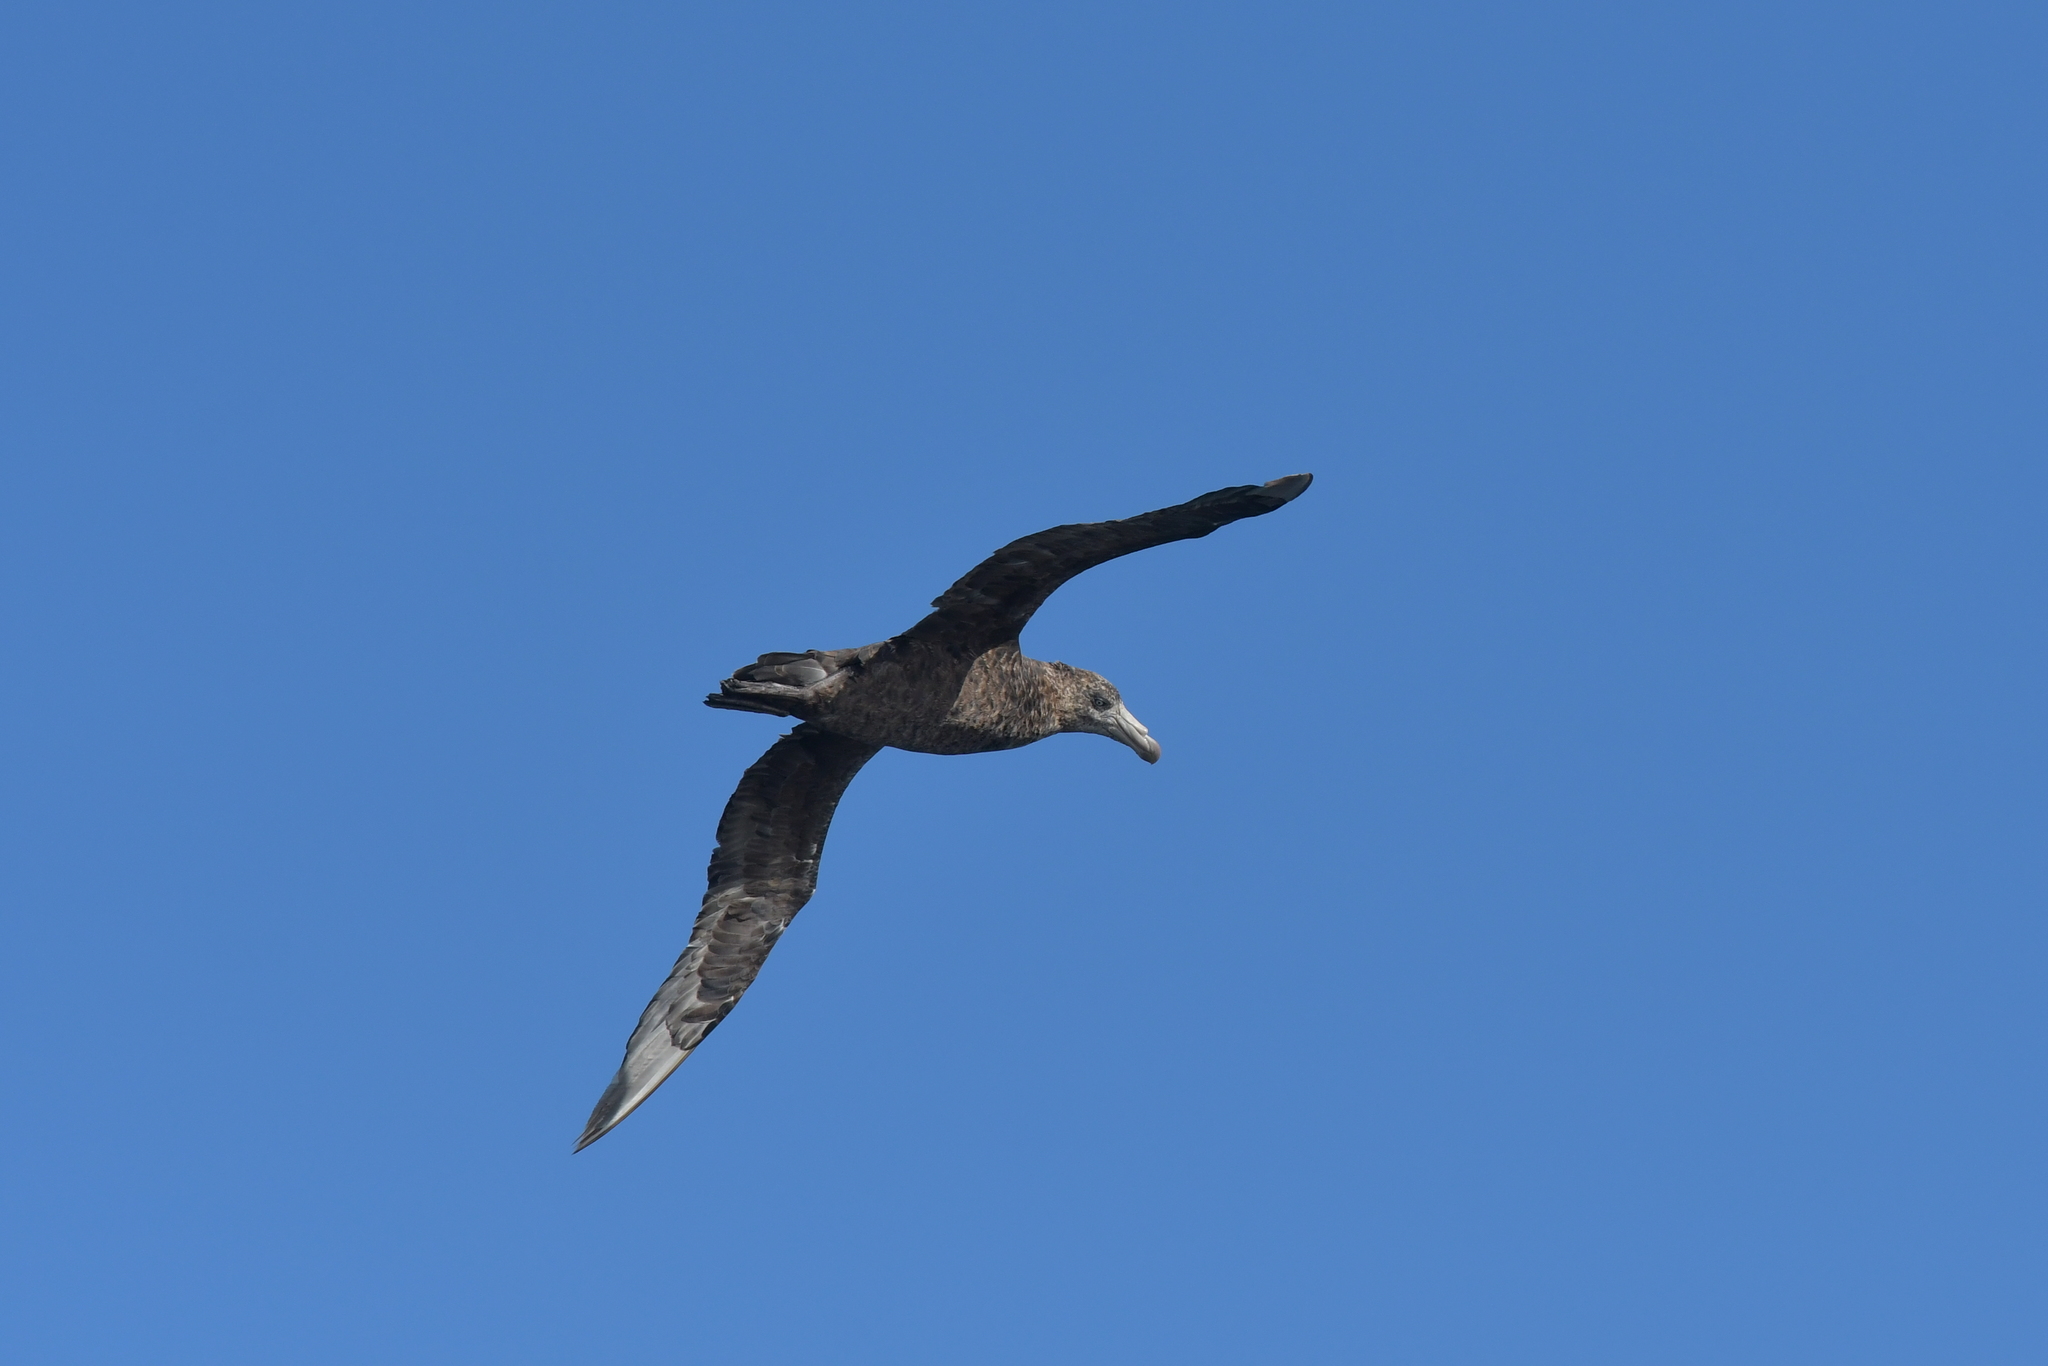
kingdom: Animalia
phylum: Chordata
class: Aves
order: Procellariiformes
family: Procellariidae
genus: Macronectes
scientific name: Macronectes halli
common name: Northern giant petrel
